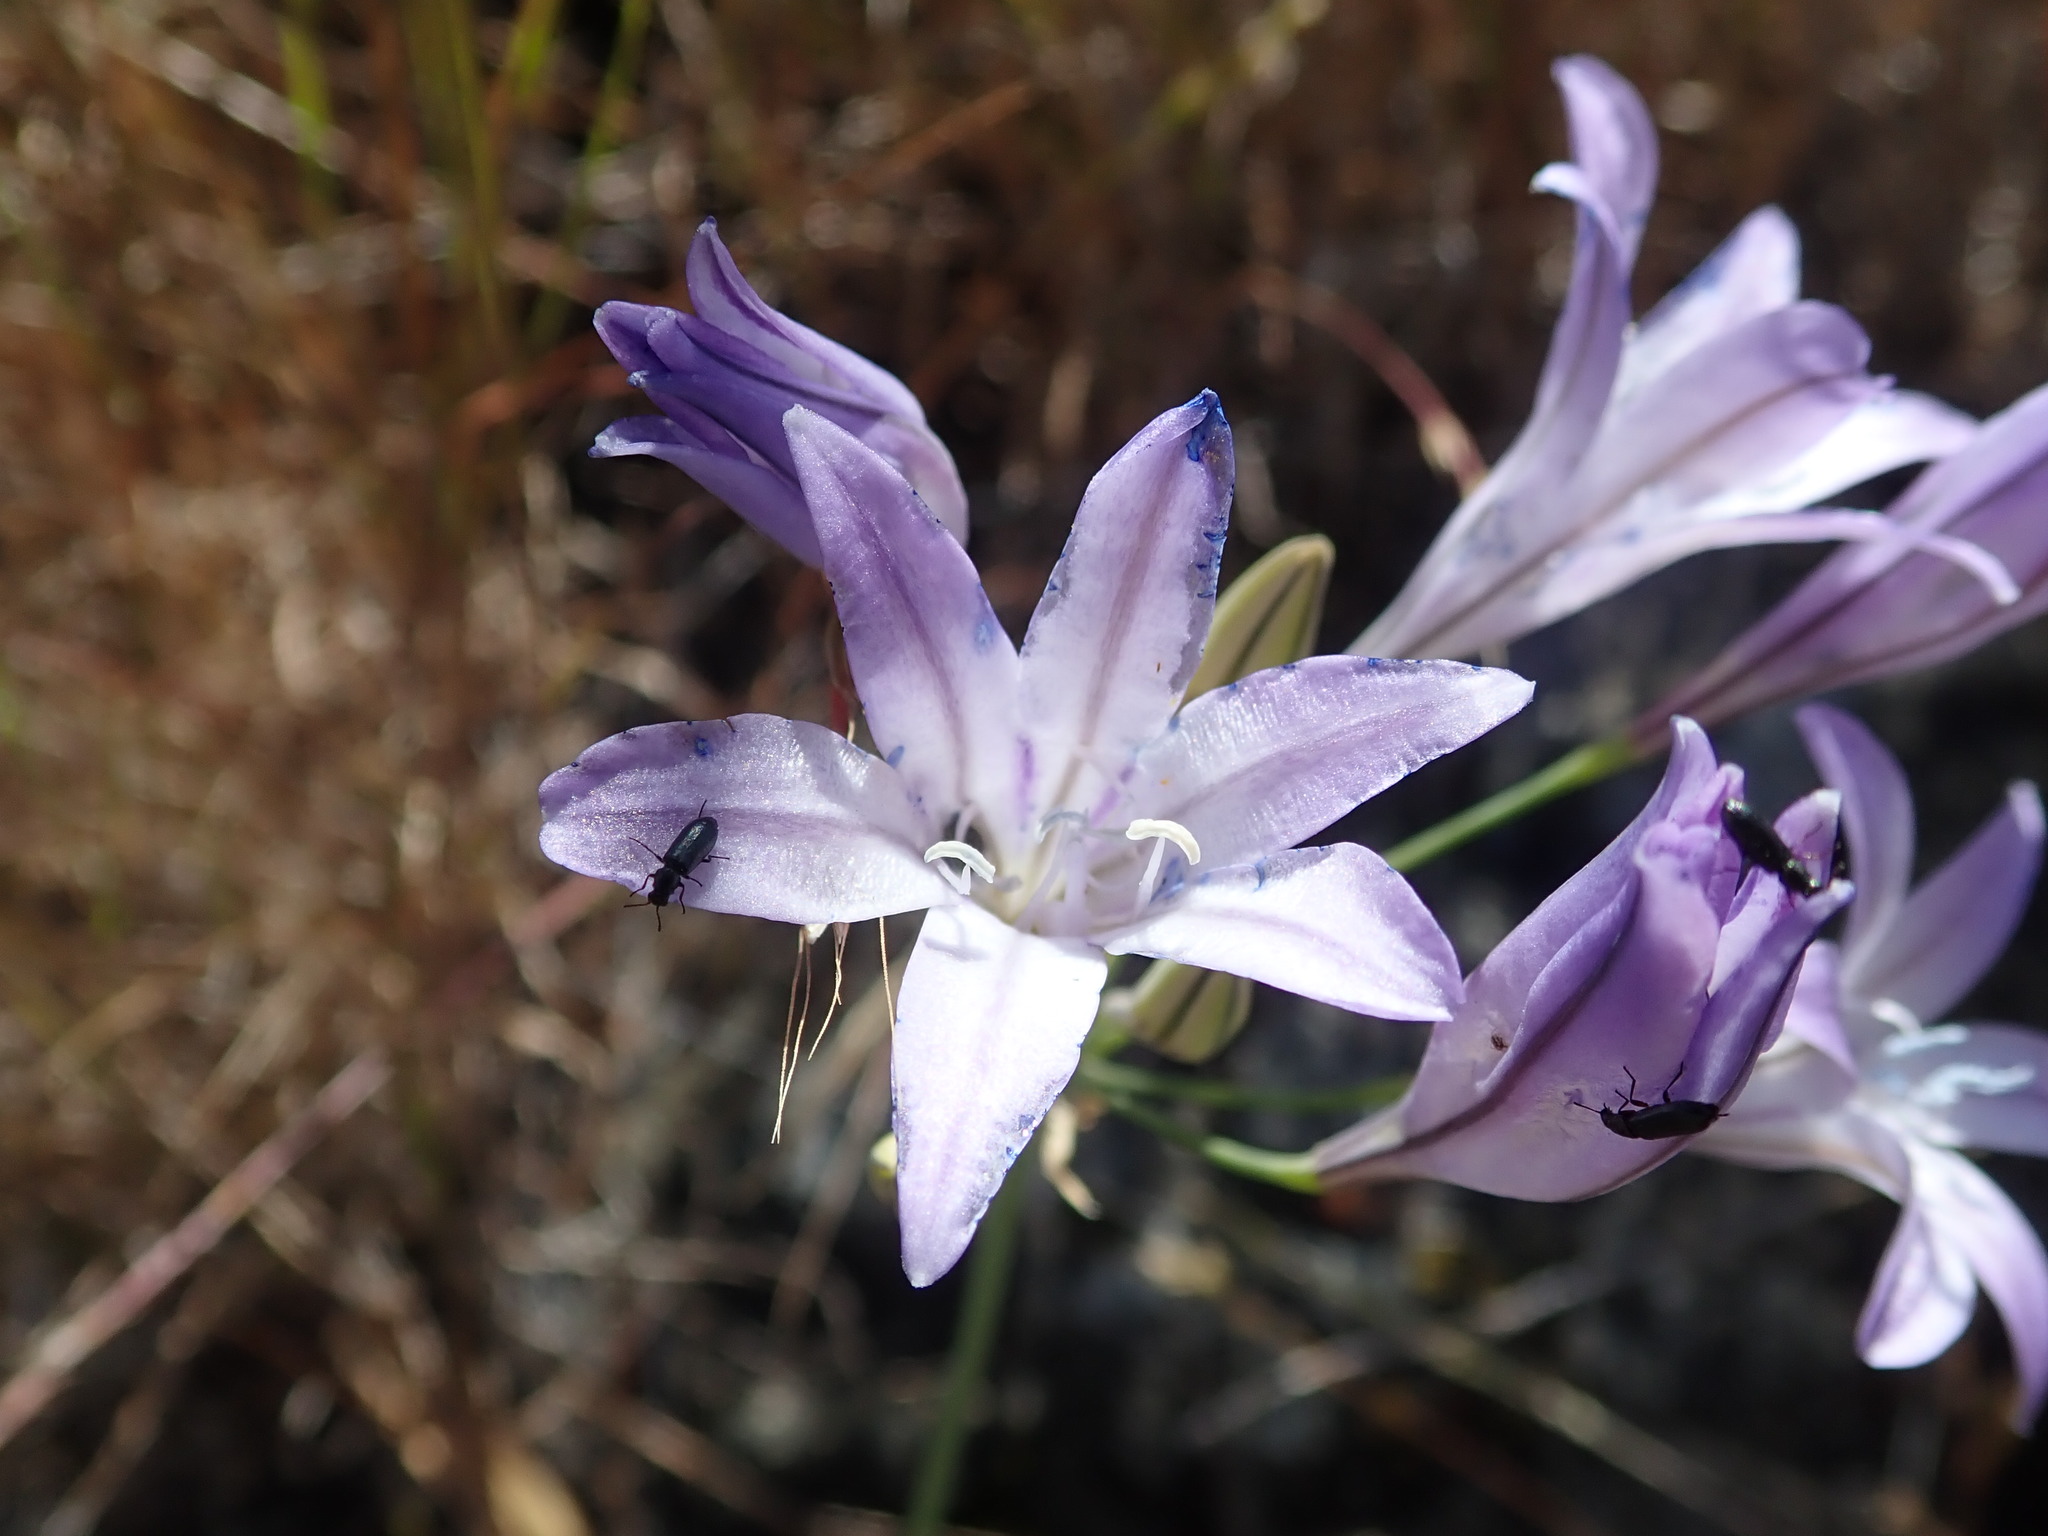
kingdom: Plantae
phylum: Tracheophyta
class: Liliopsida
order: Asparagales
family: Asparagaceae
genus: Triteleia
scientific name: Triteleia laxa
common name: Triplet-lily
